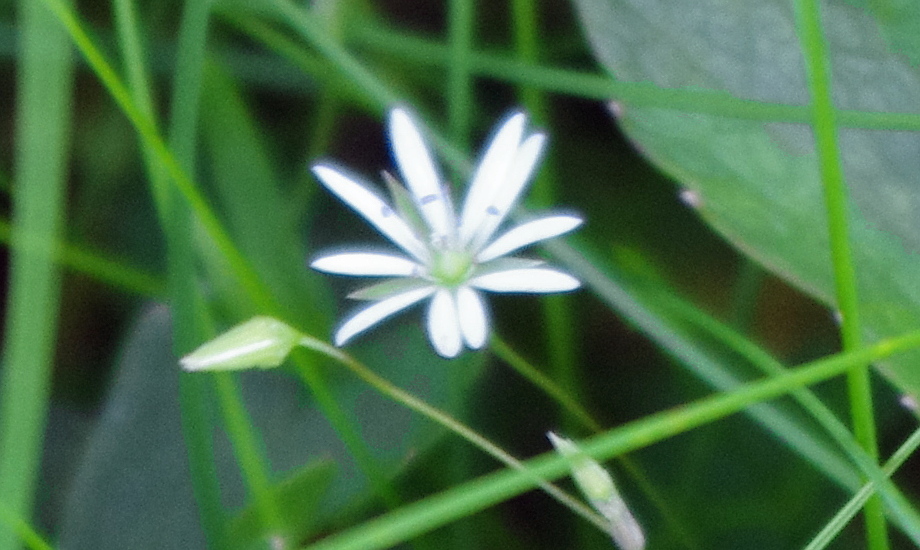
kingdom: Plantae
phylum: Tracheophyta
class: Magnoliopsida
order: Caryophyllales
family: Caryophyllaceae
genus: Stellaria
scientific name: Stellaria palustris
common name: Marsh stitchwort
